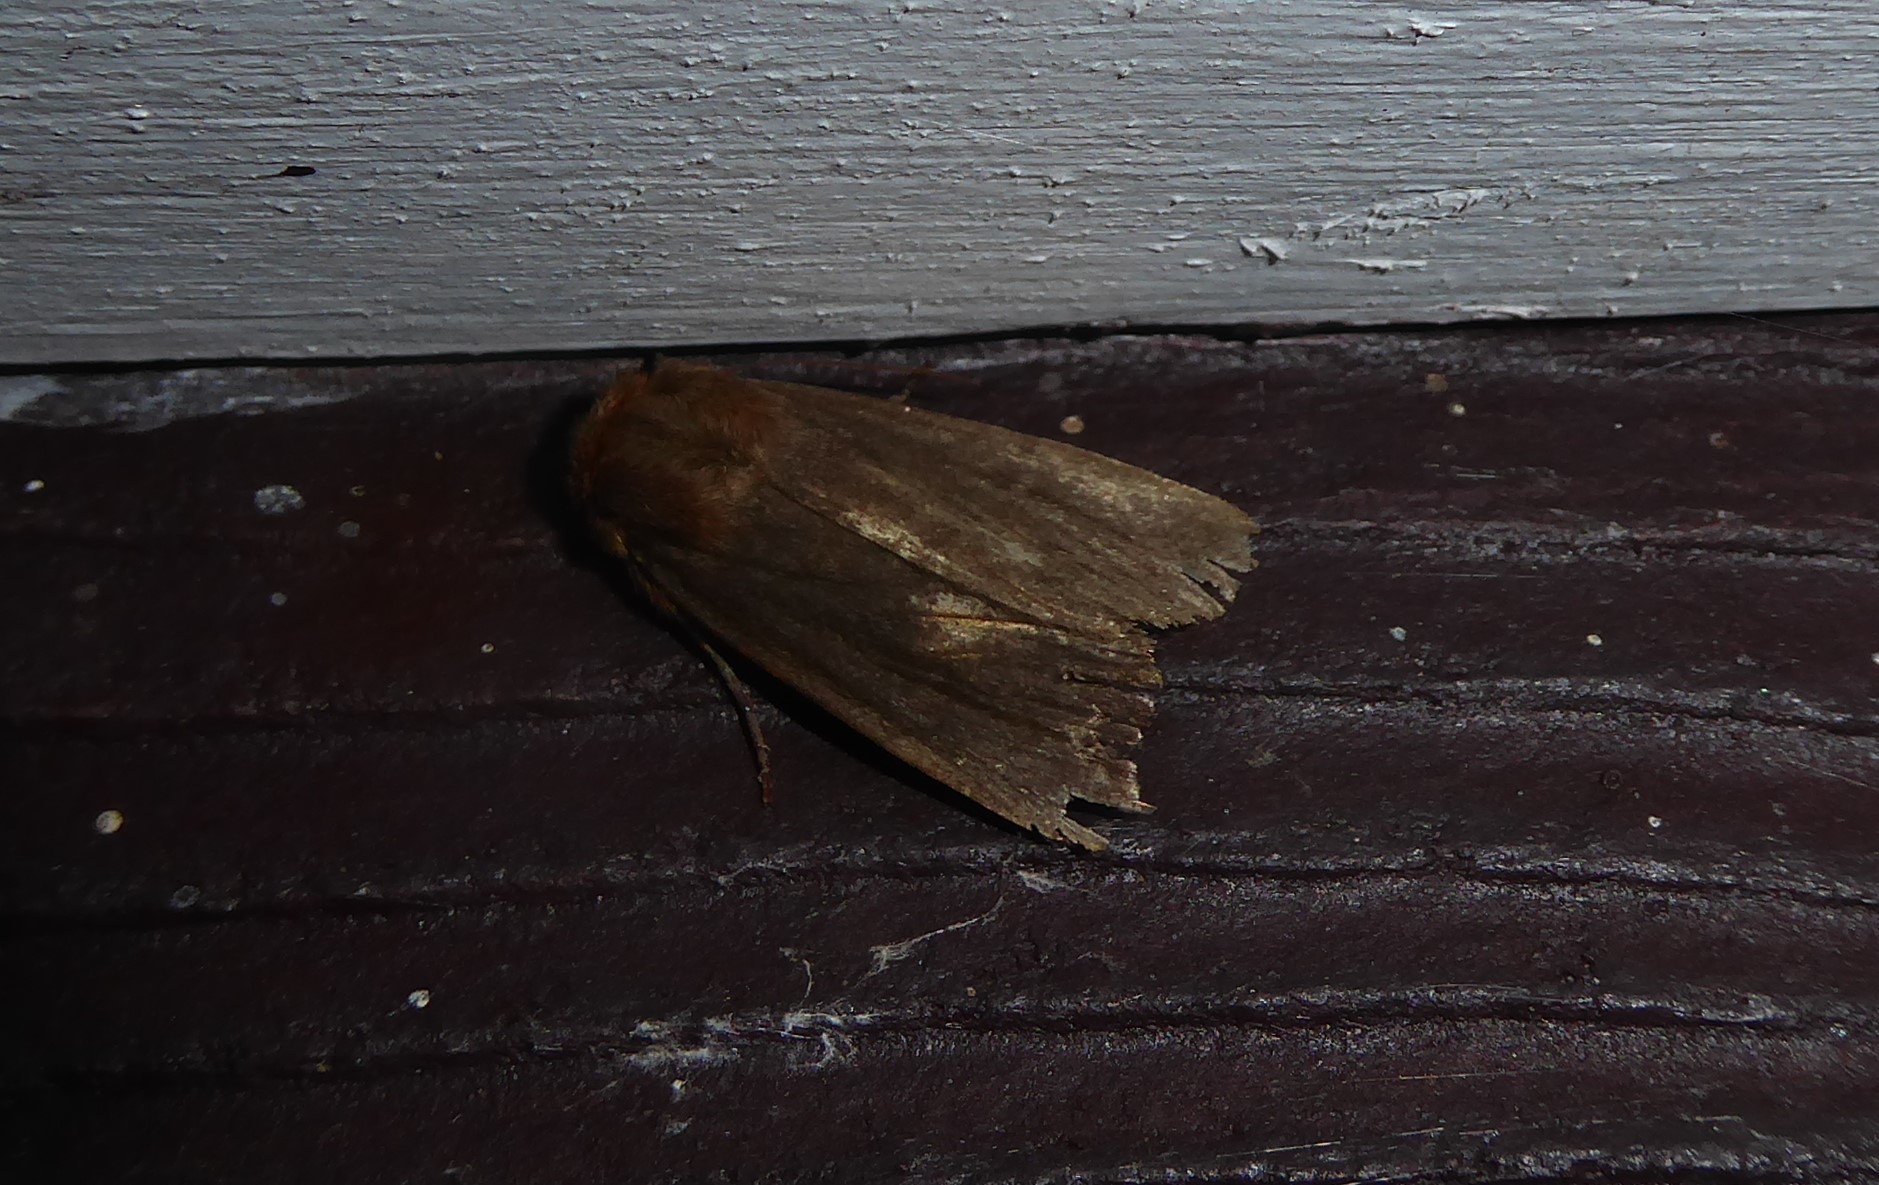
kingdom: Animalia
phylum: Arthropoda
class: Insecta
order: Lepidoptera
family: Noctuidae
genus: Bityla
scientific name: Bityla defigurata
